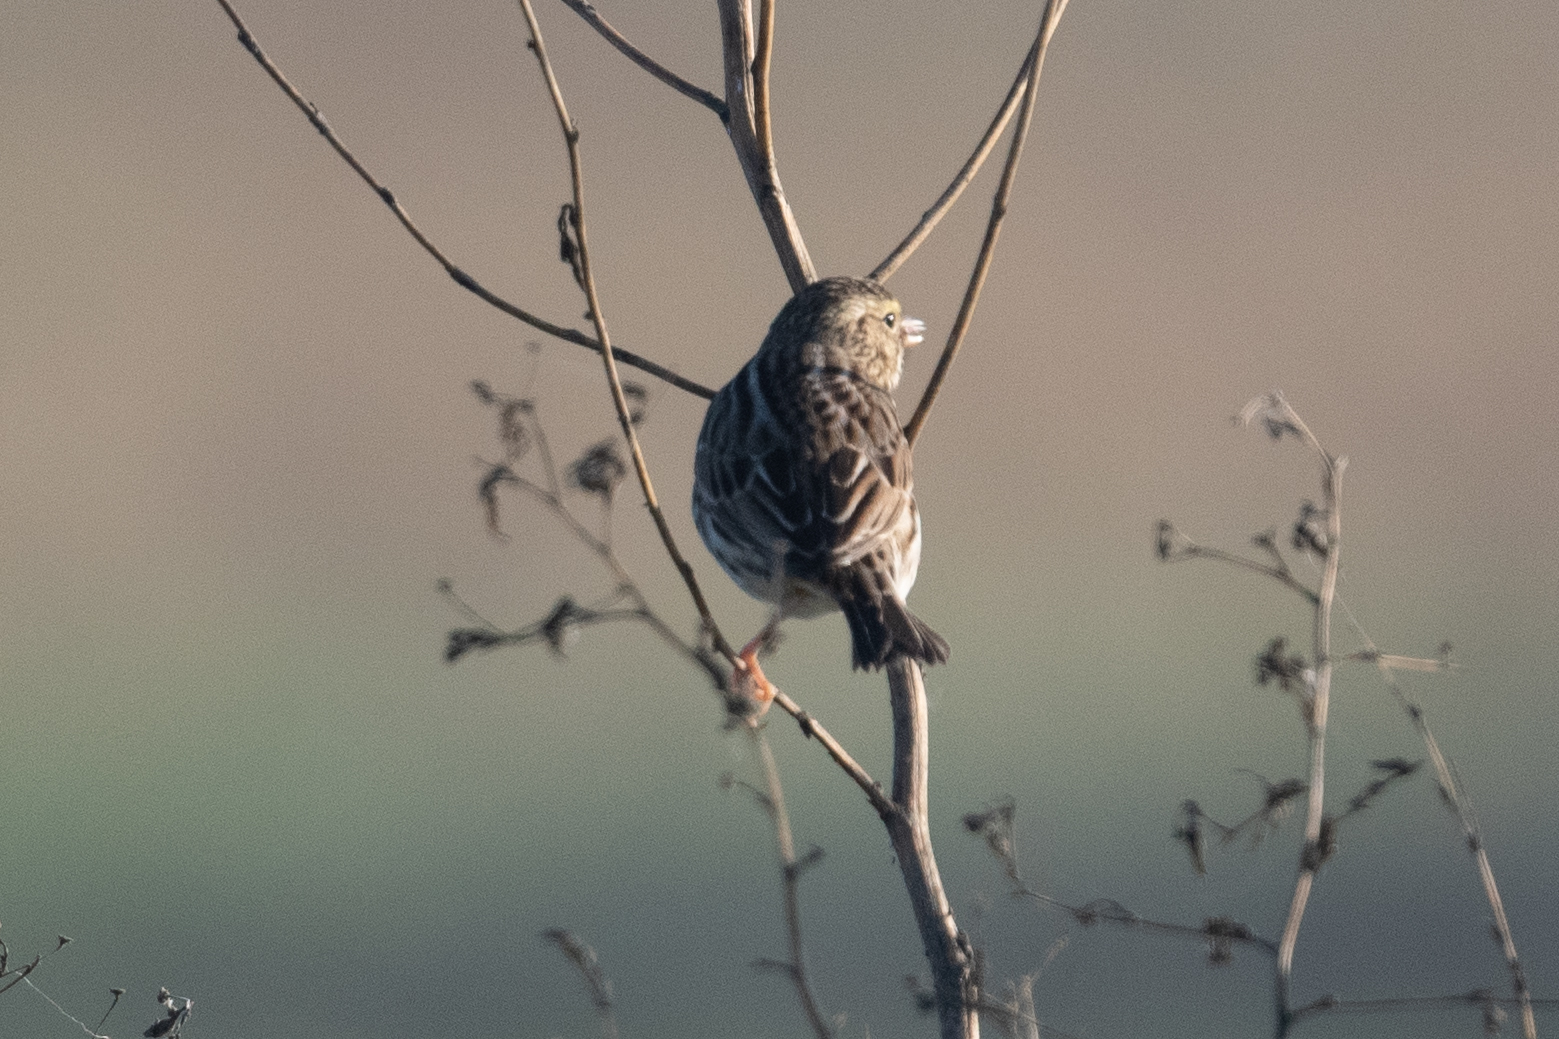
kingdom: Animalia
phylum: Chordata
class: Aves
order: Passeriformes
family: Passerellidae
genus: Passerculus
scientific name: Passerculus sandwichensis
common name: Savannah sparrow
